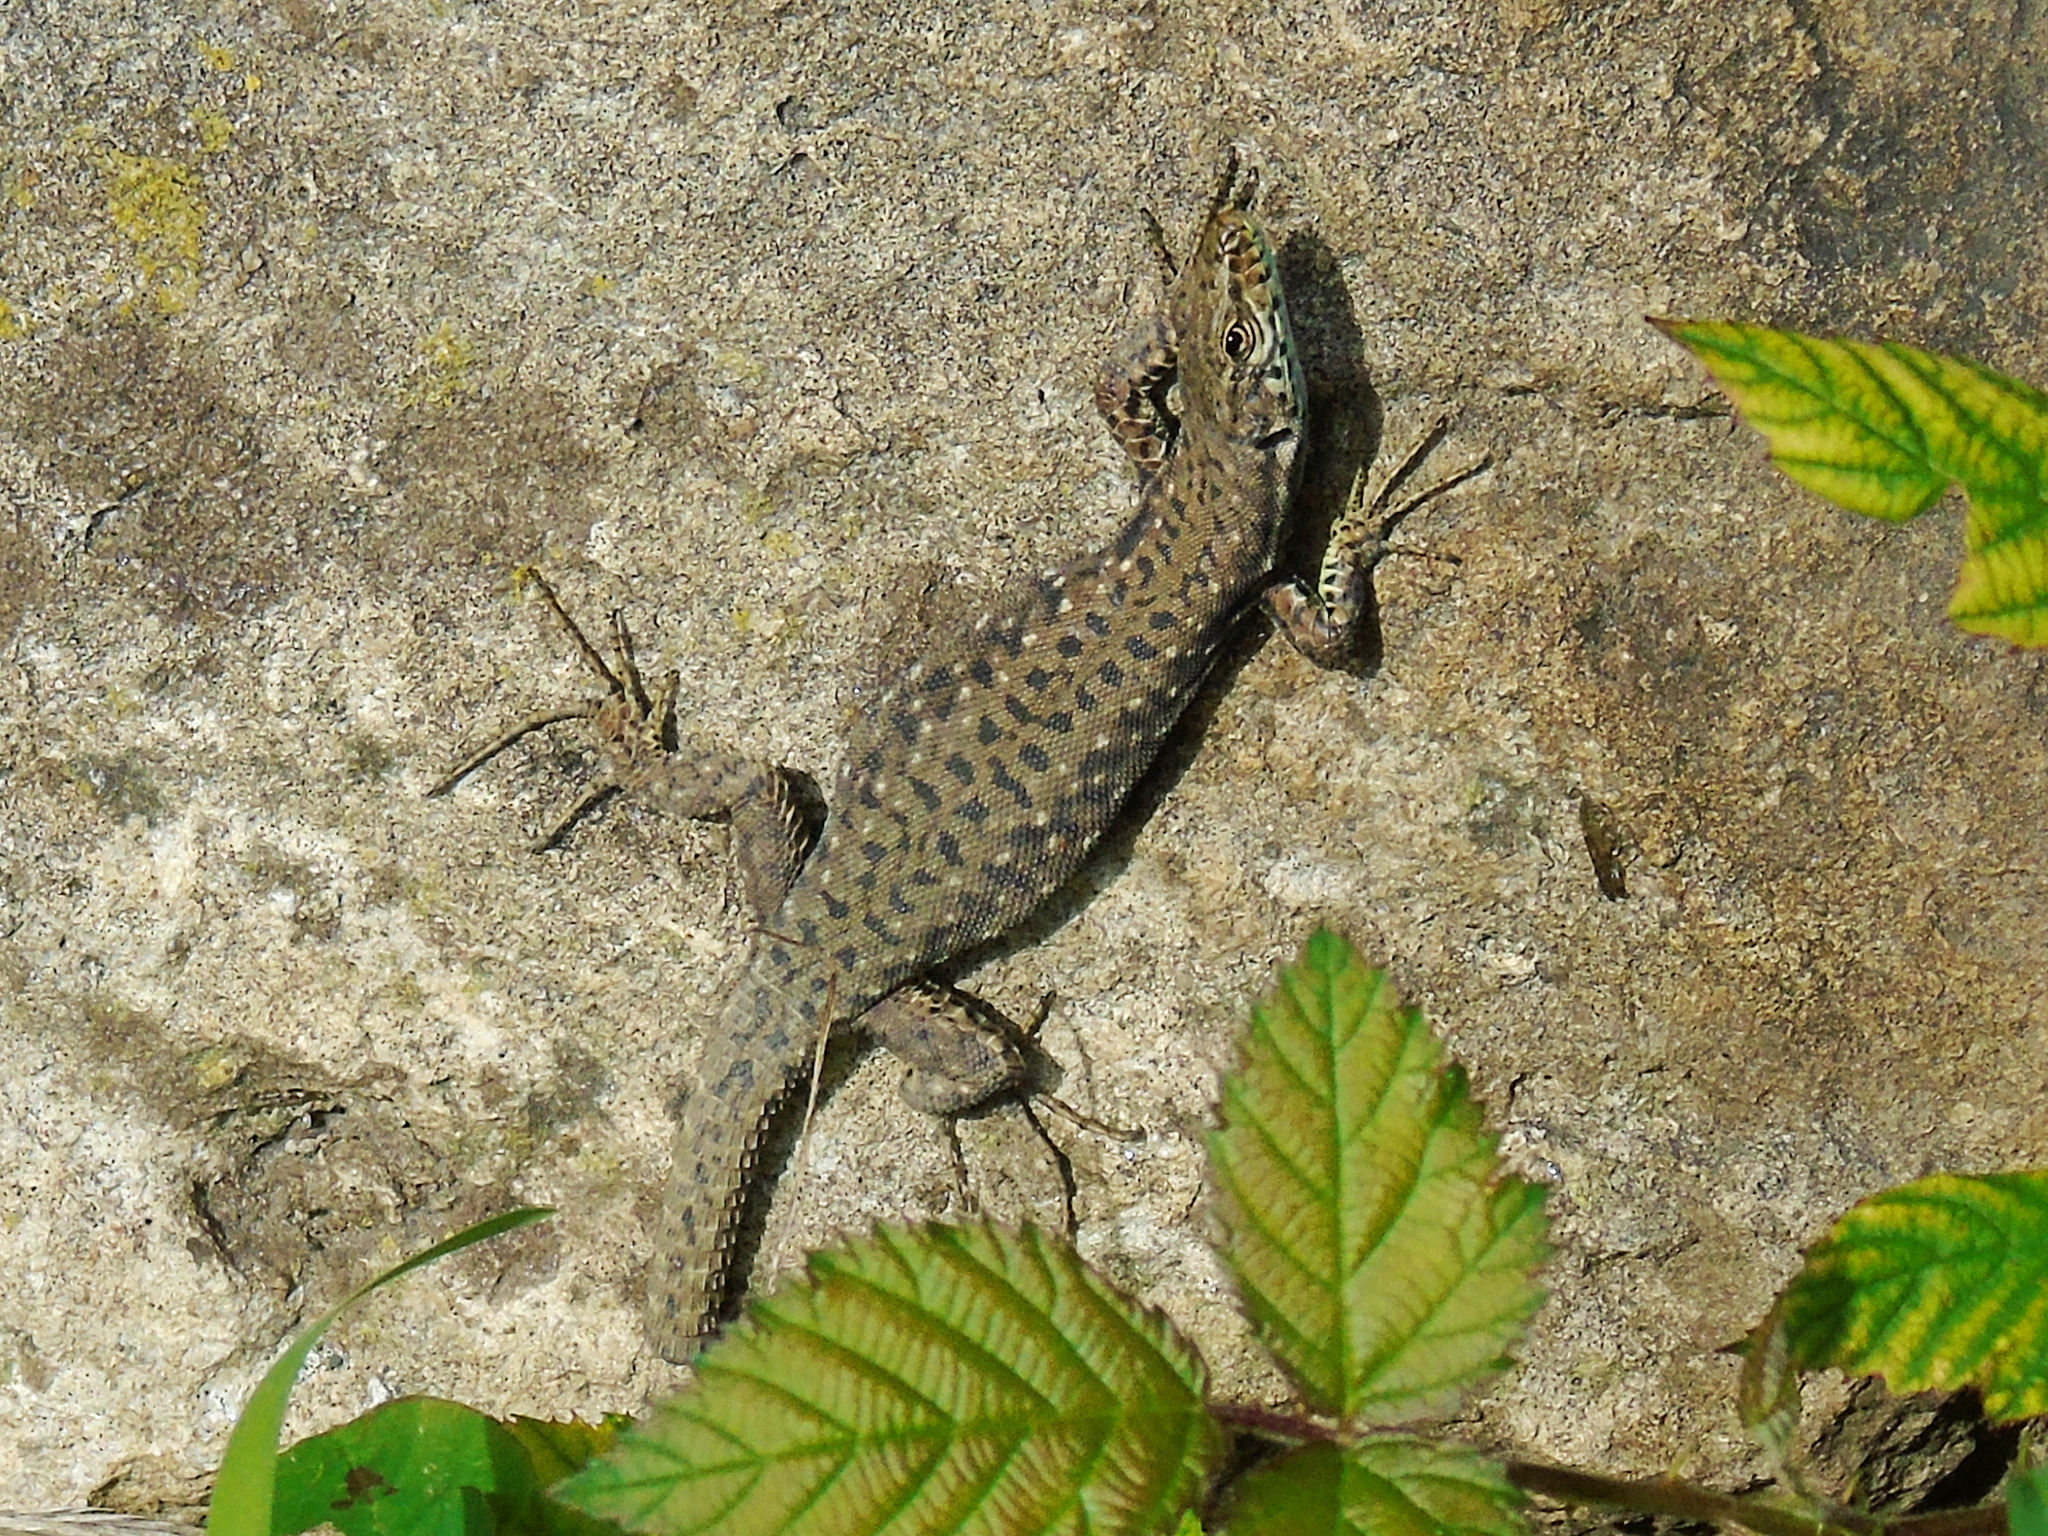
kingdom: Animalia
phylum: Chordata
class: Squamata
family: Lacertidae
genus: Darevskia
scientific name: Darevskia rudis
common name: Spiny-tailed lizard
